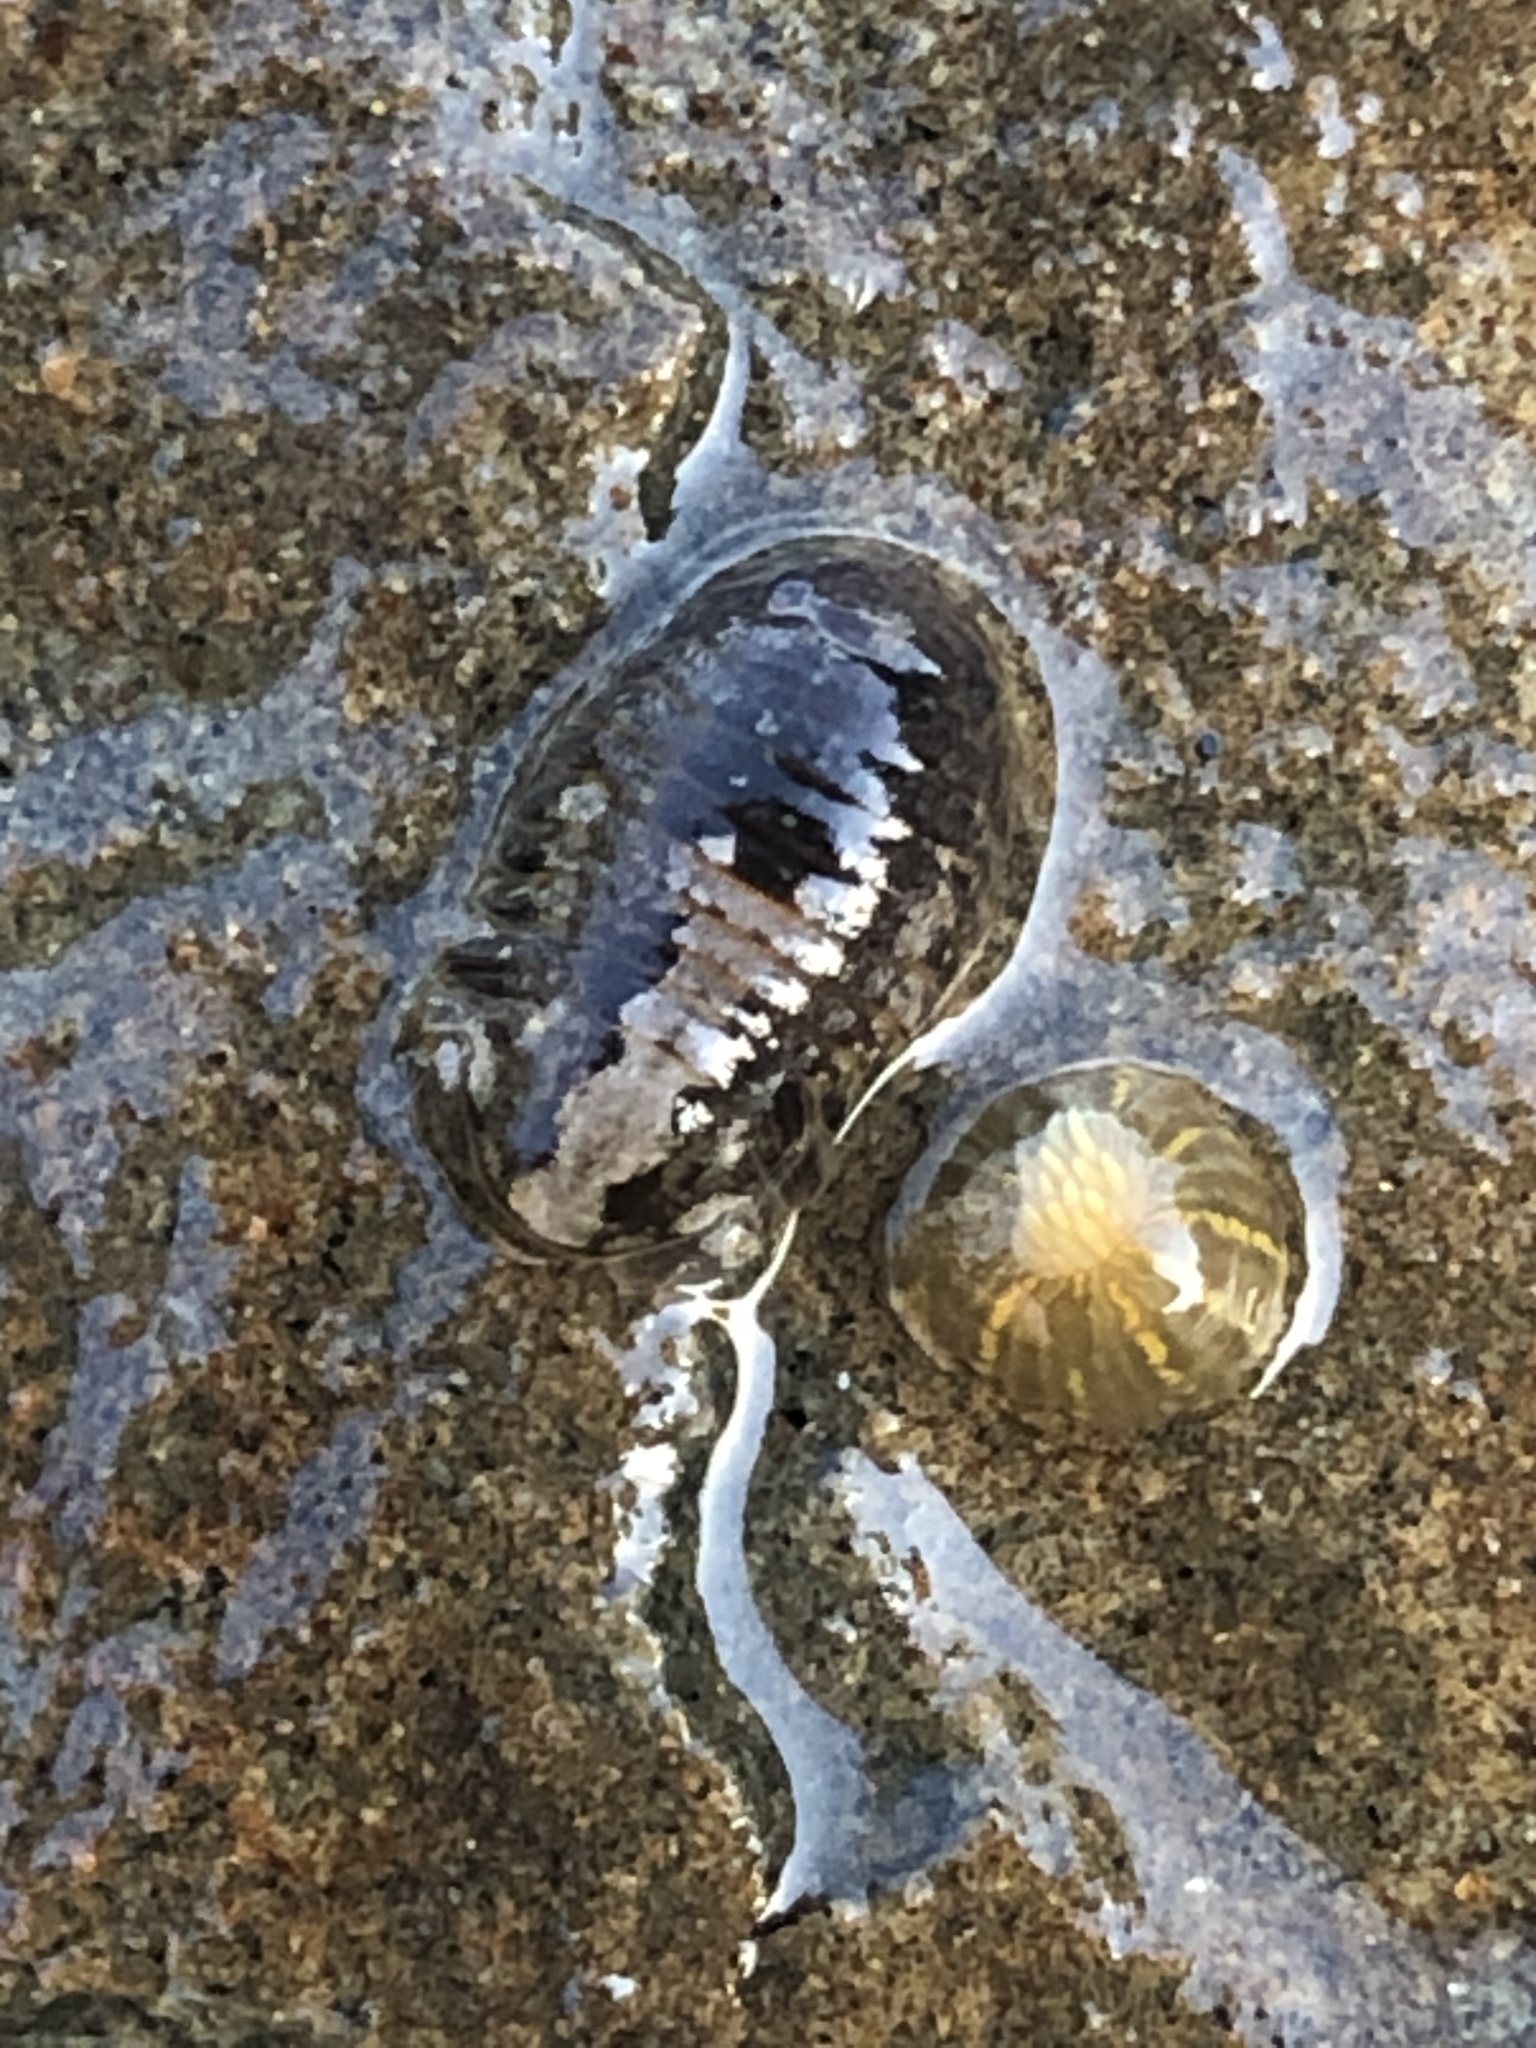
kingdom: Animalia
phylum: Arthropoda
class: Malacostraca
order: Isopoda
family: Sphaeromatidae
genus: Gnorimosphaeroma
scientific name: Gnorimosphaeroma oregonense
